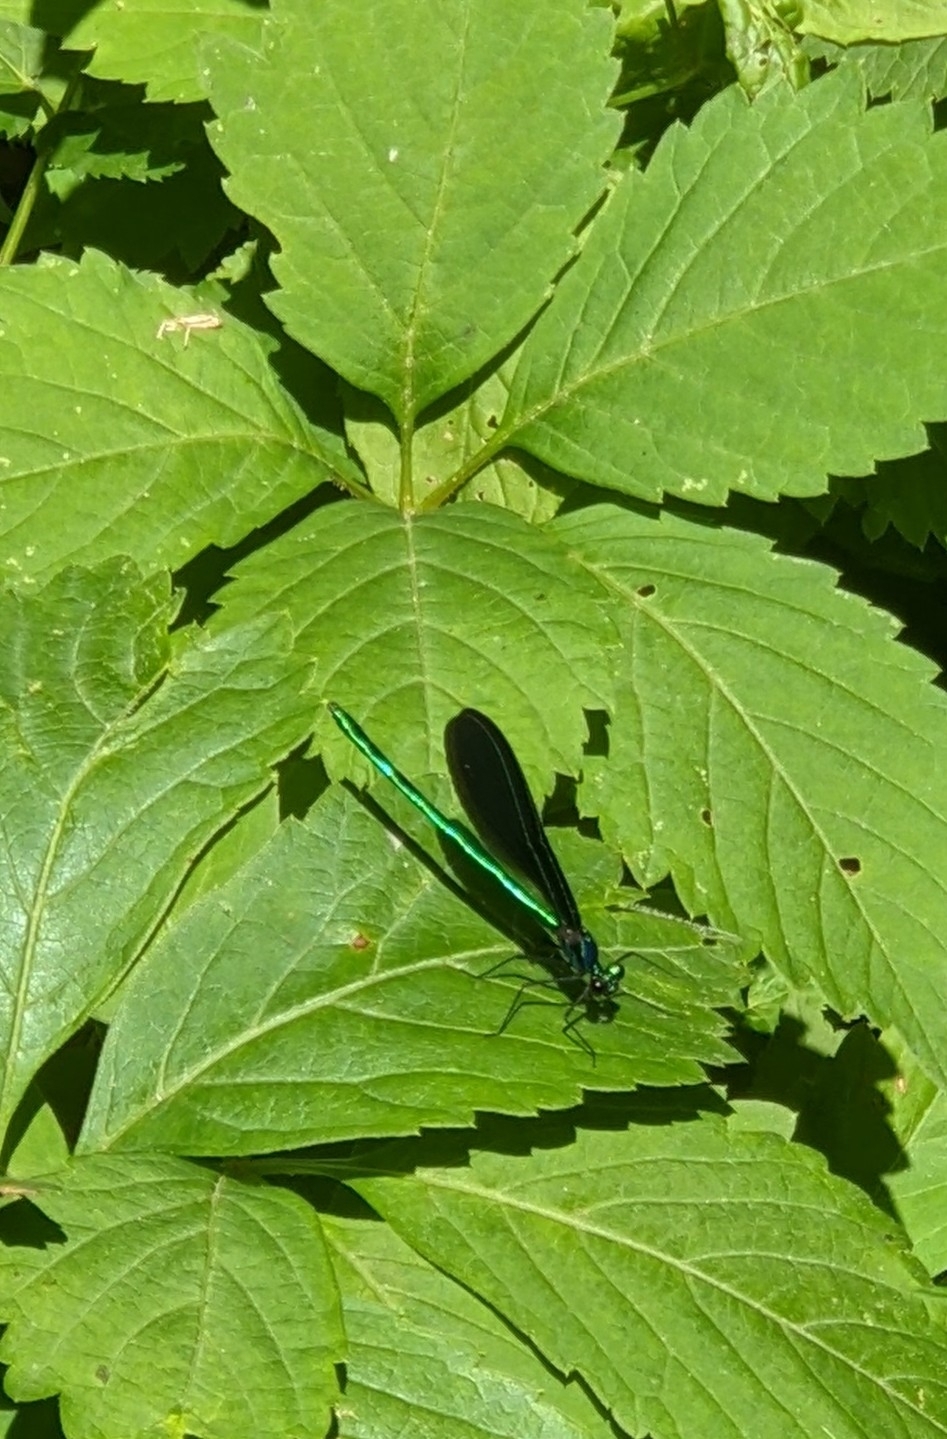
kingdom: Animalia
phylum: Arthropoda
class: Insecta
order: Odonata
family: Calopterygidae
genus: Calopteryx
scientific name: Calopteryx maculata
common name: Ebony jewelwing
